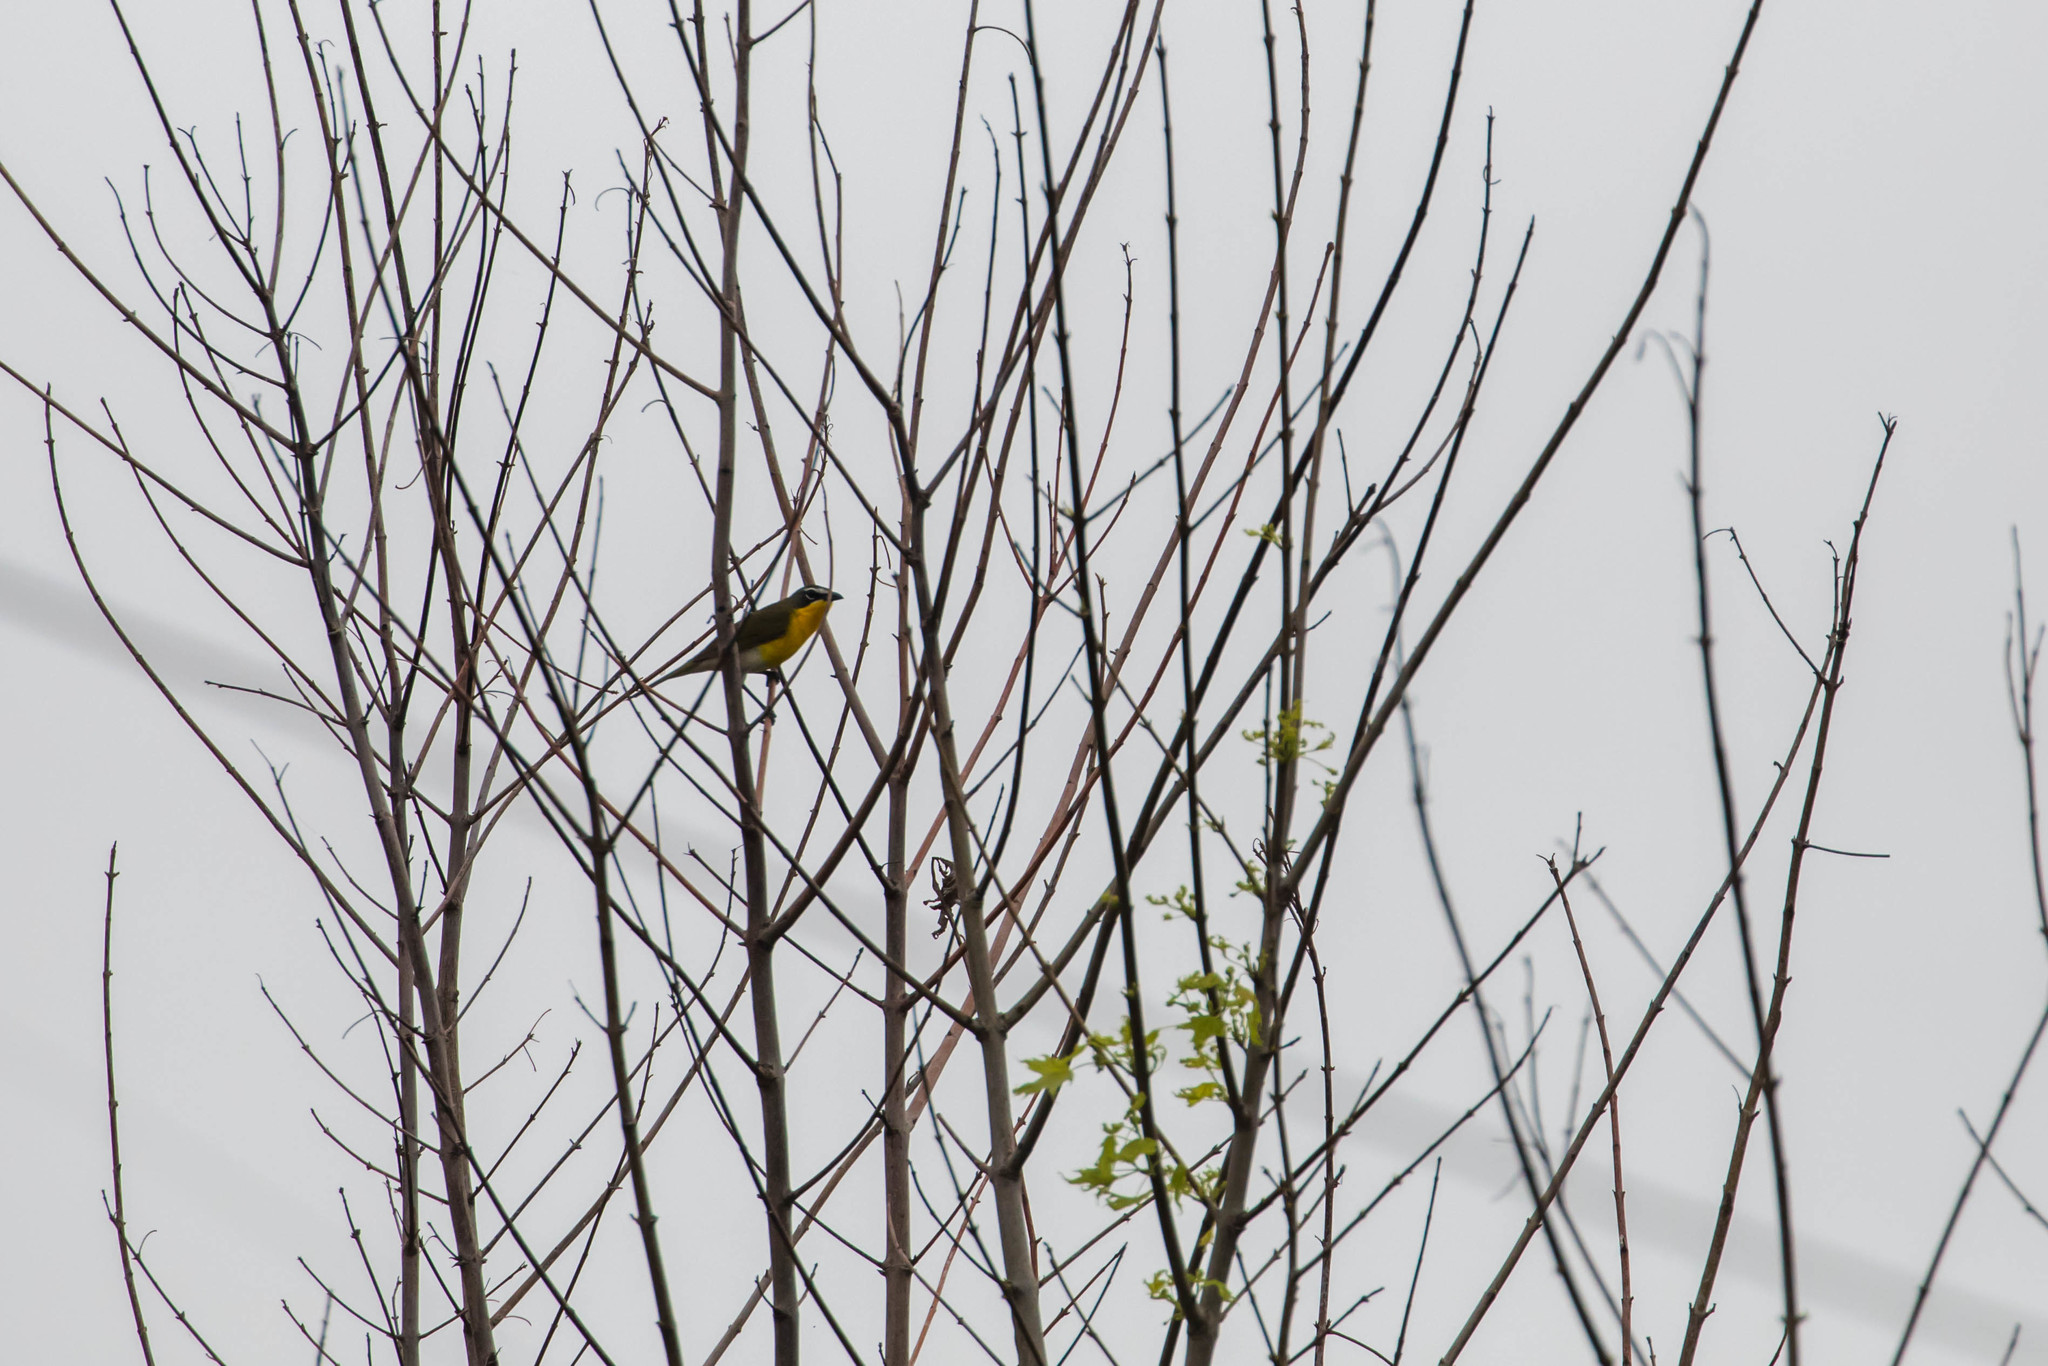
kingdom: Animalia
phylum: Chordata
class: Aves
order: Passeriformes
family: Parulidae
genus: Icteria
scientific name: Icteria virens
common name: Yellow-breasted chat
